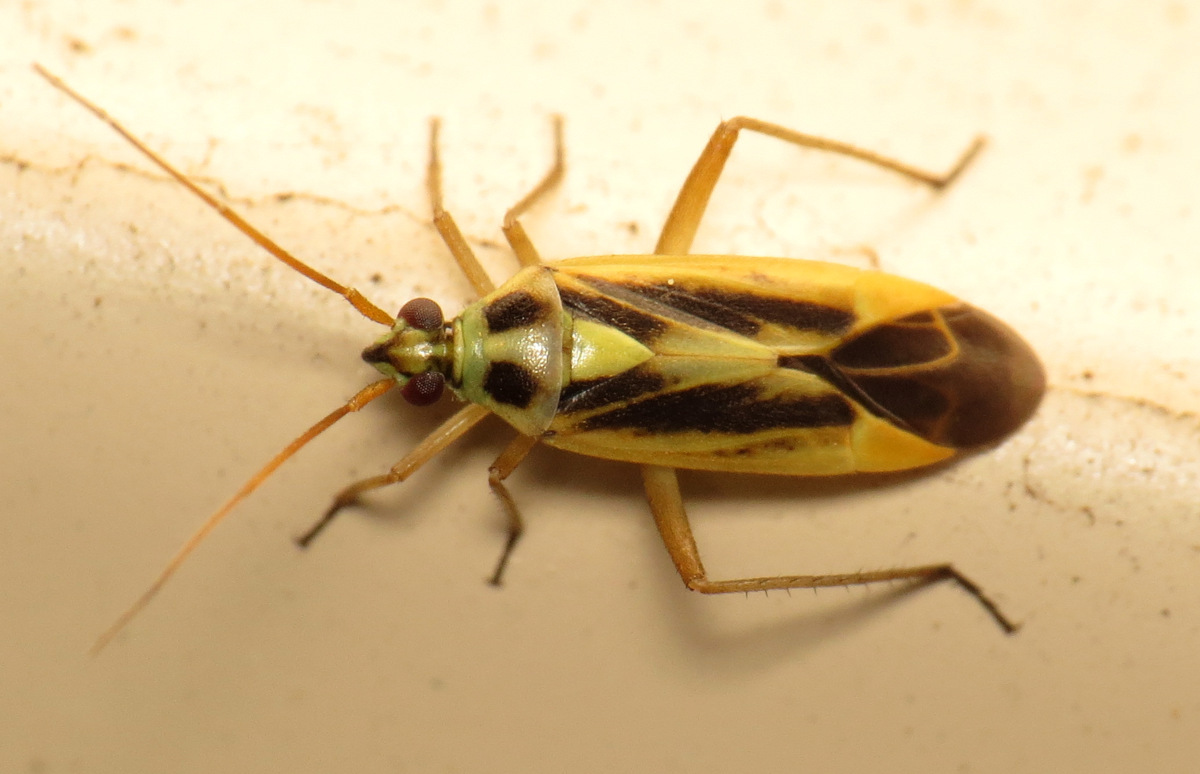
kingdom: Animalia
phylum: Arthropoda
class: Insecta
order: Hemiptera
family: Miridae
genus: Stenotus
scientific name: Stenotus binotatus
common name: Plant bug
